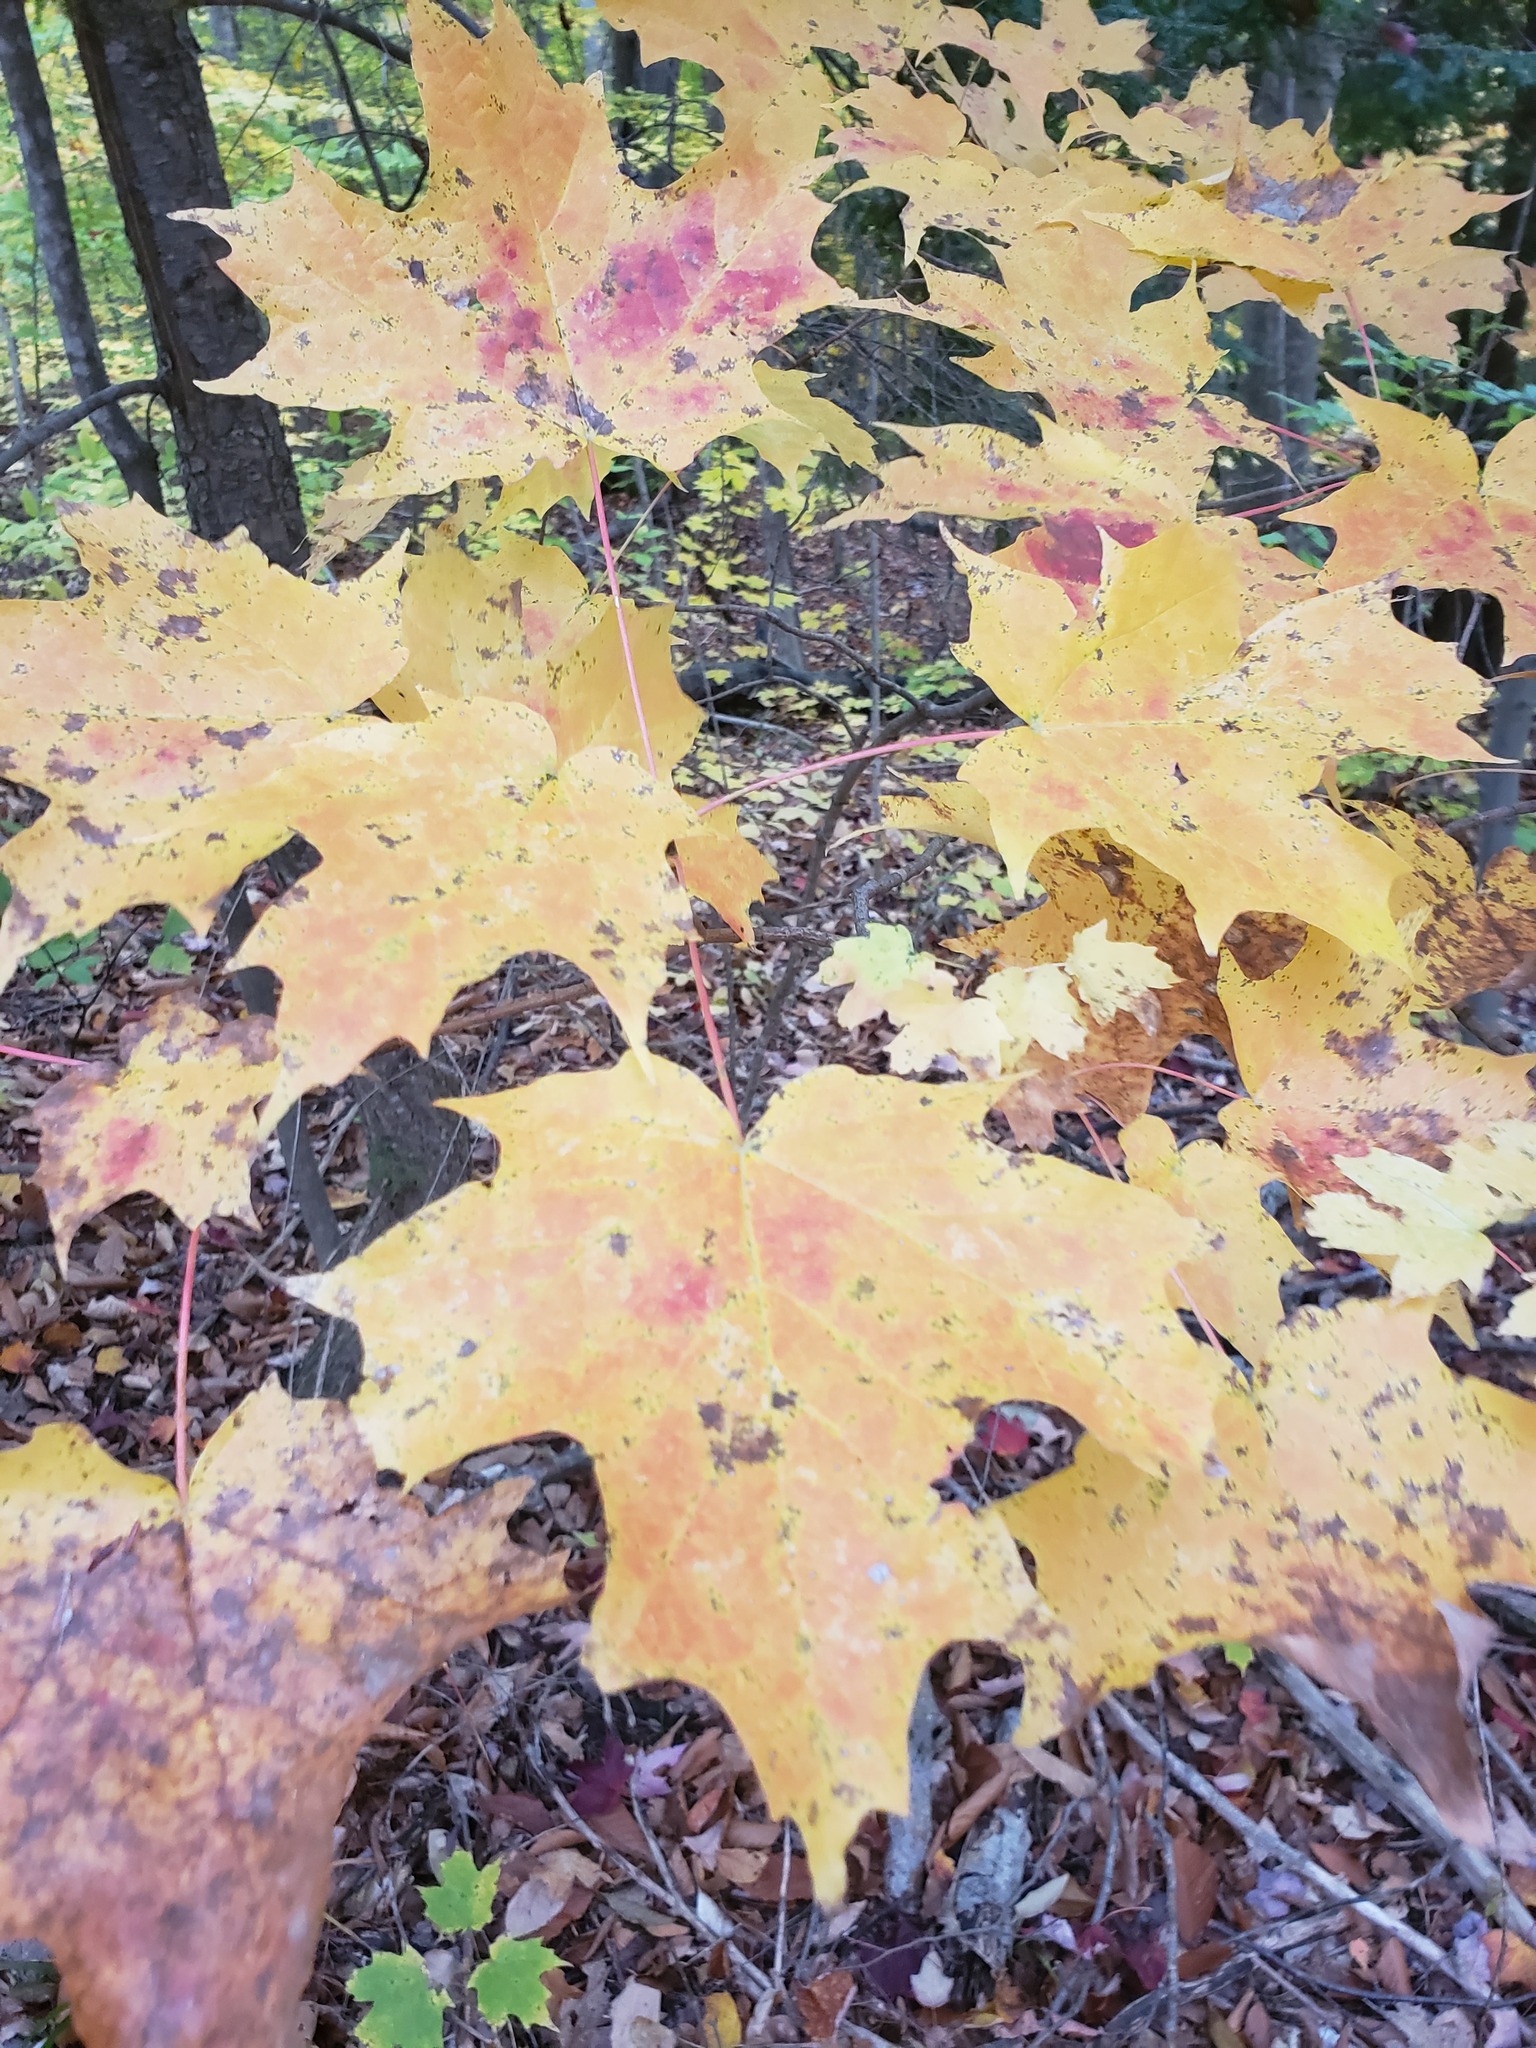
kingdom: Plantae
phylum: Tracheophyta
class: Magnoliopsida
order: Sapindales
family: Sapindaceae
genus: Acer
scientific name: Acer saccharum
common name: Sugar maple
